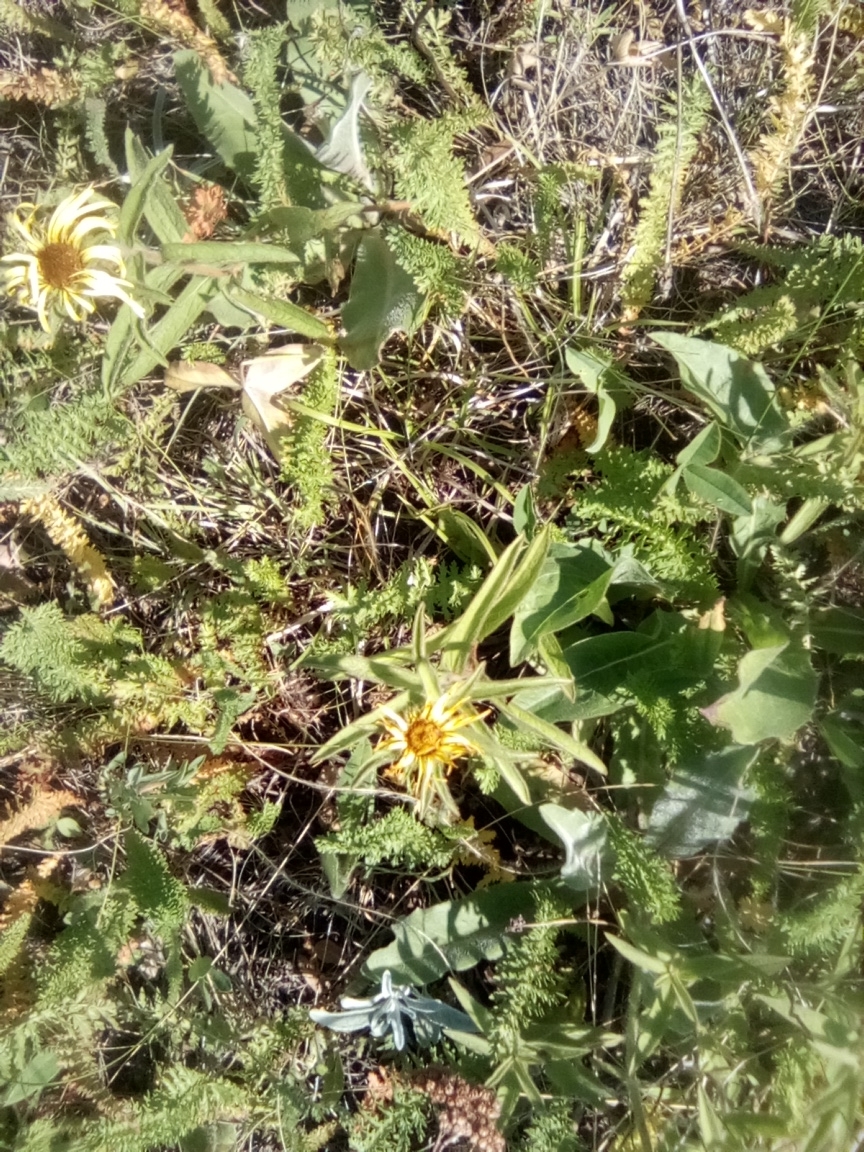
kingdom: Plantae
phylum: Tracheophyta
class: Magnoliopsida
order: Asterales
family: Asteraceae
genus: Pentanema
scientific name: Pentanema hirtum
